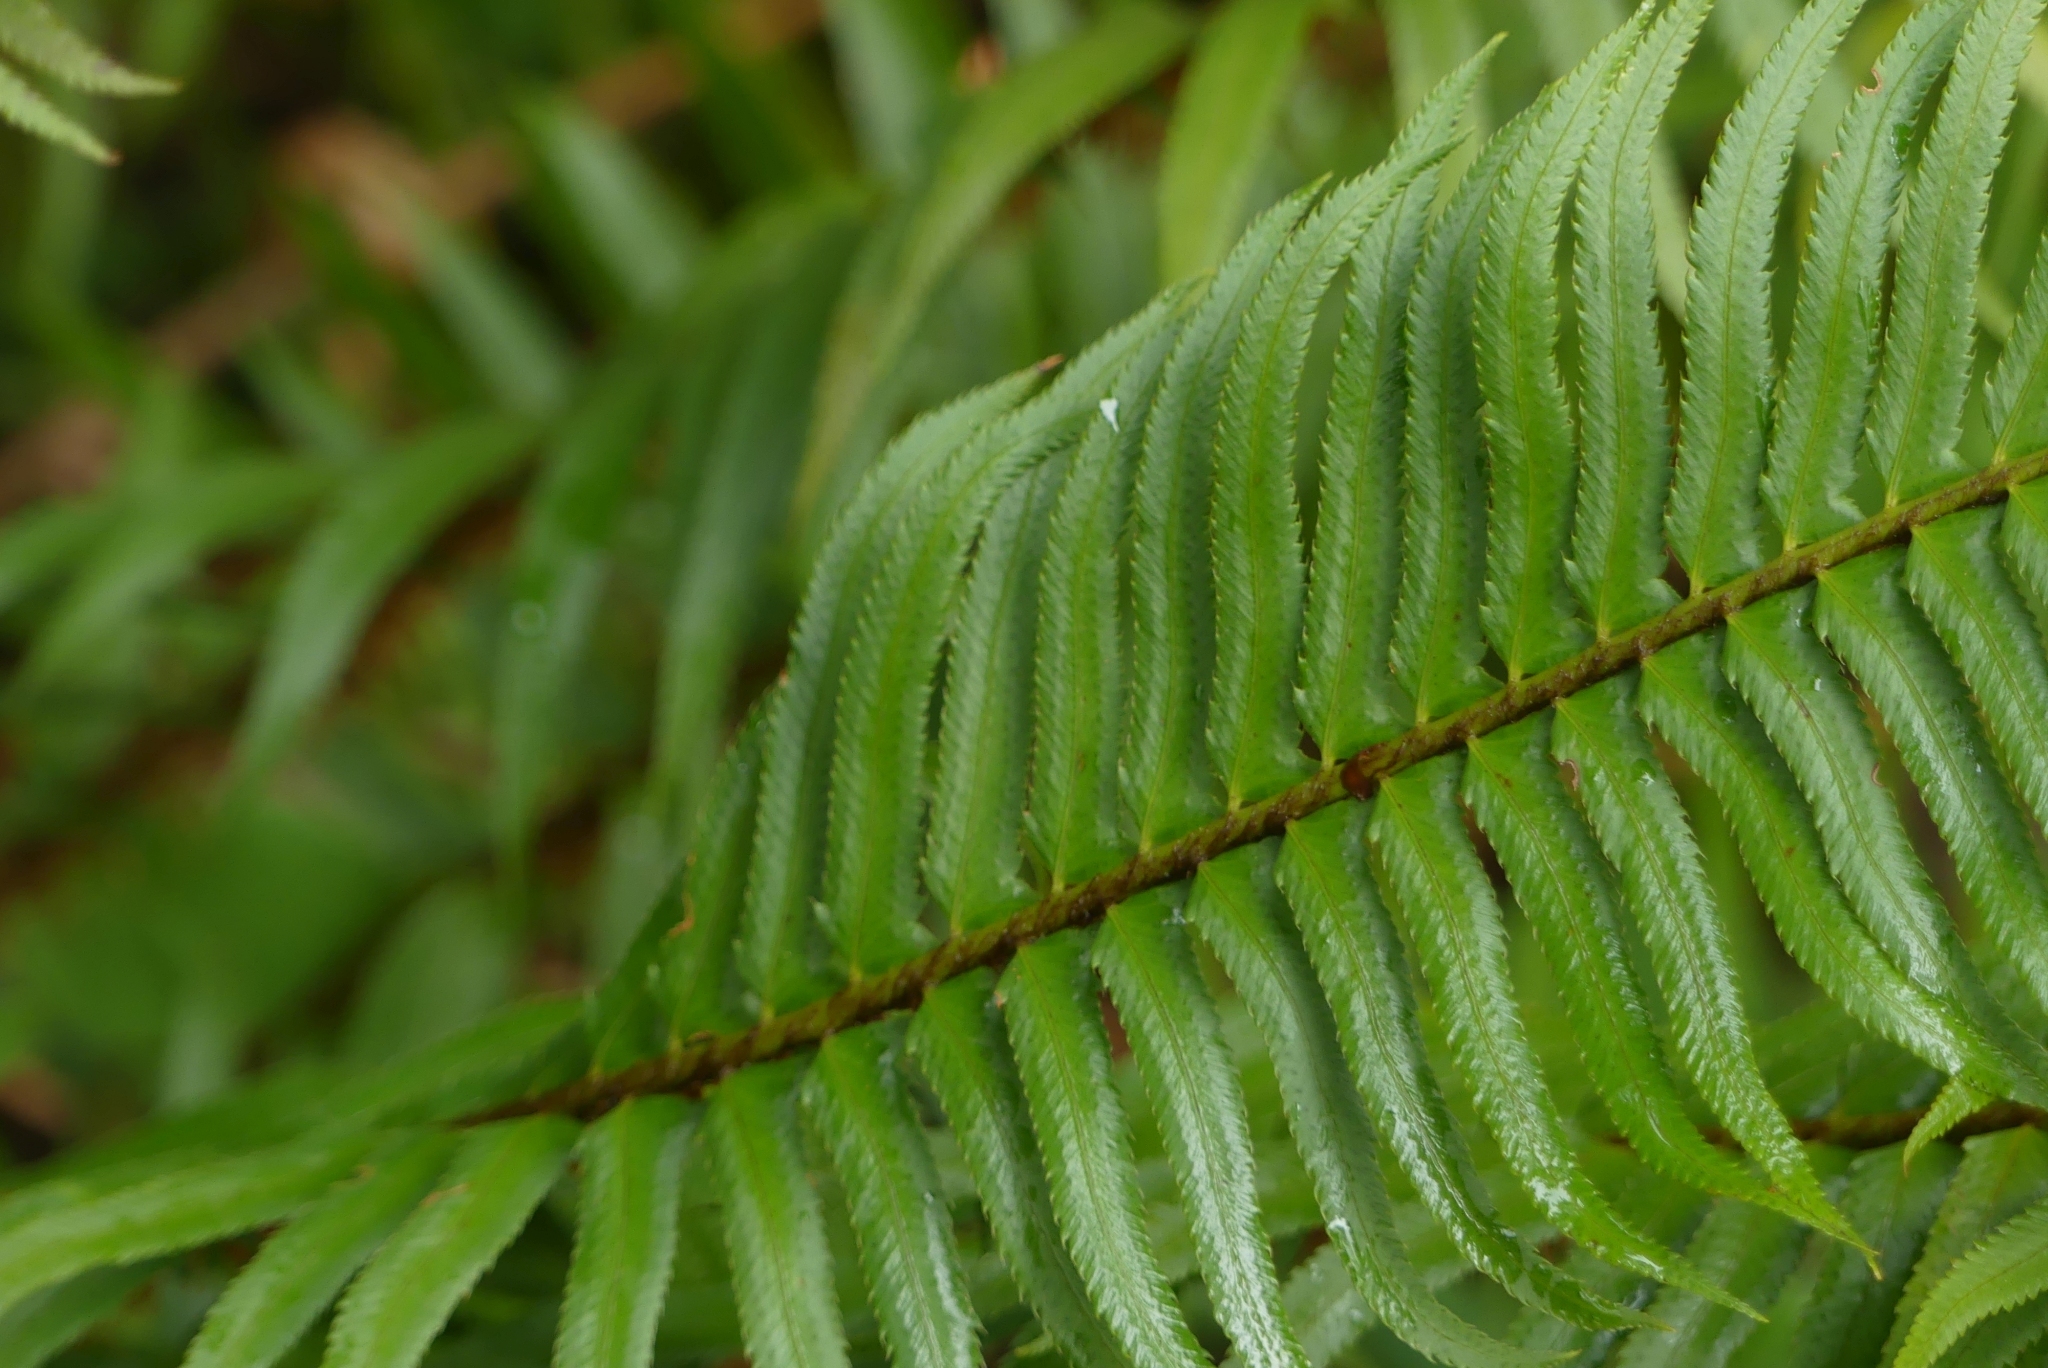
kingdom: Plantae
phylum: Tracheophyta
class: Polypodiopsida
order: Polypodiales
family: Dryopteridaceae
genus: Polystichum
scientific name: Polystichum munitum
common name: Western sword-fern
